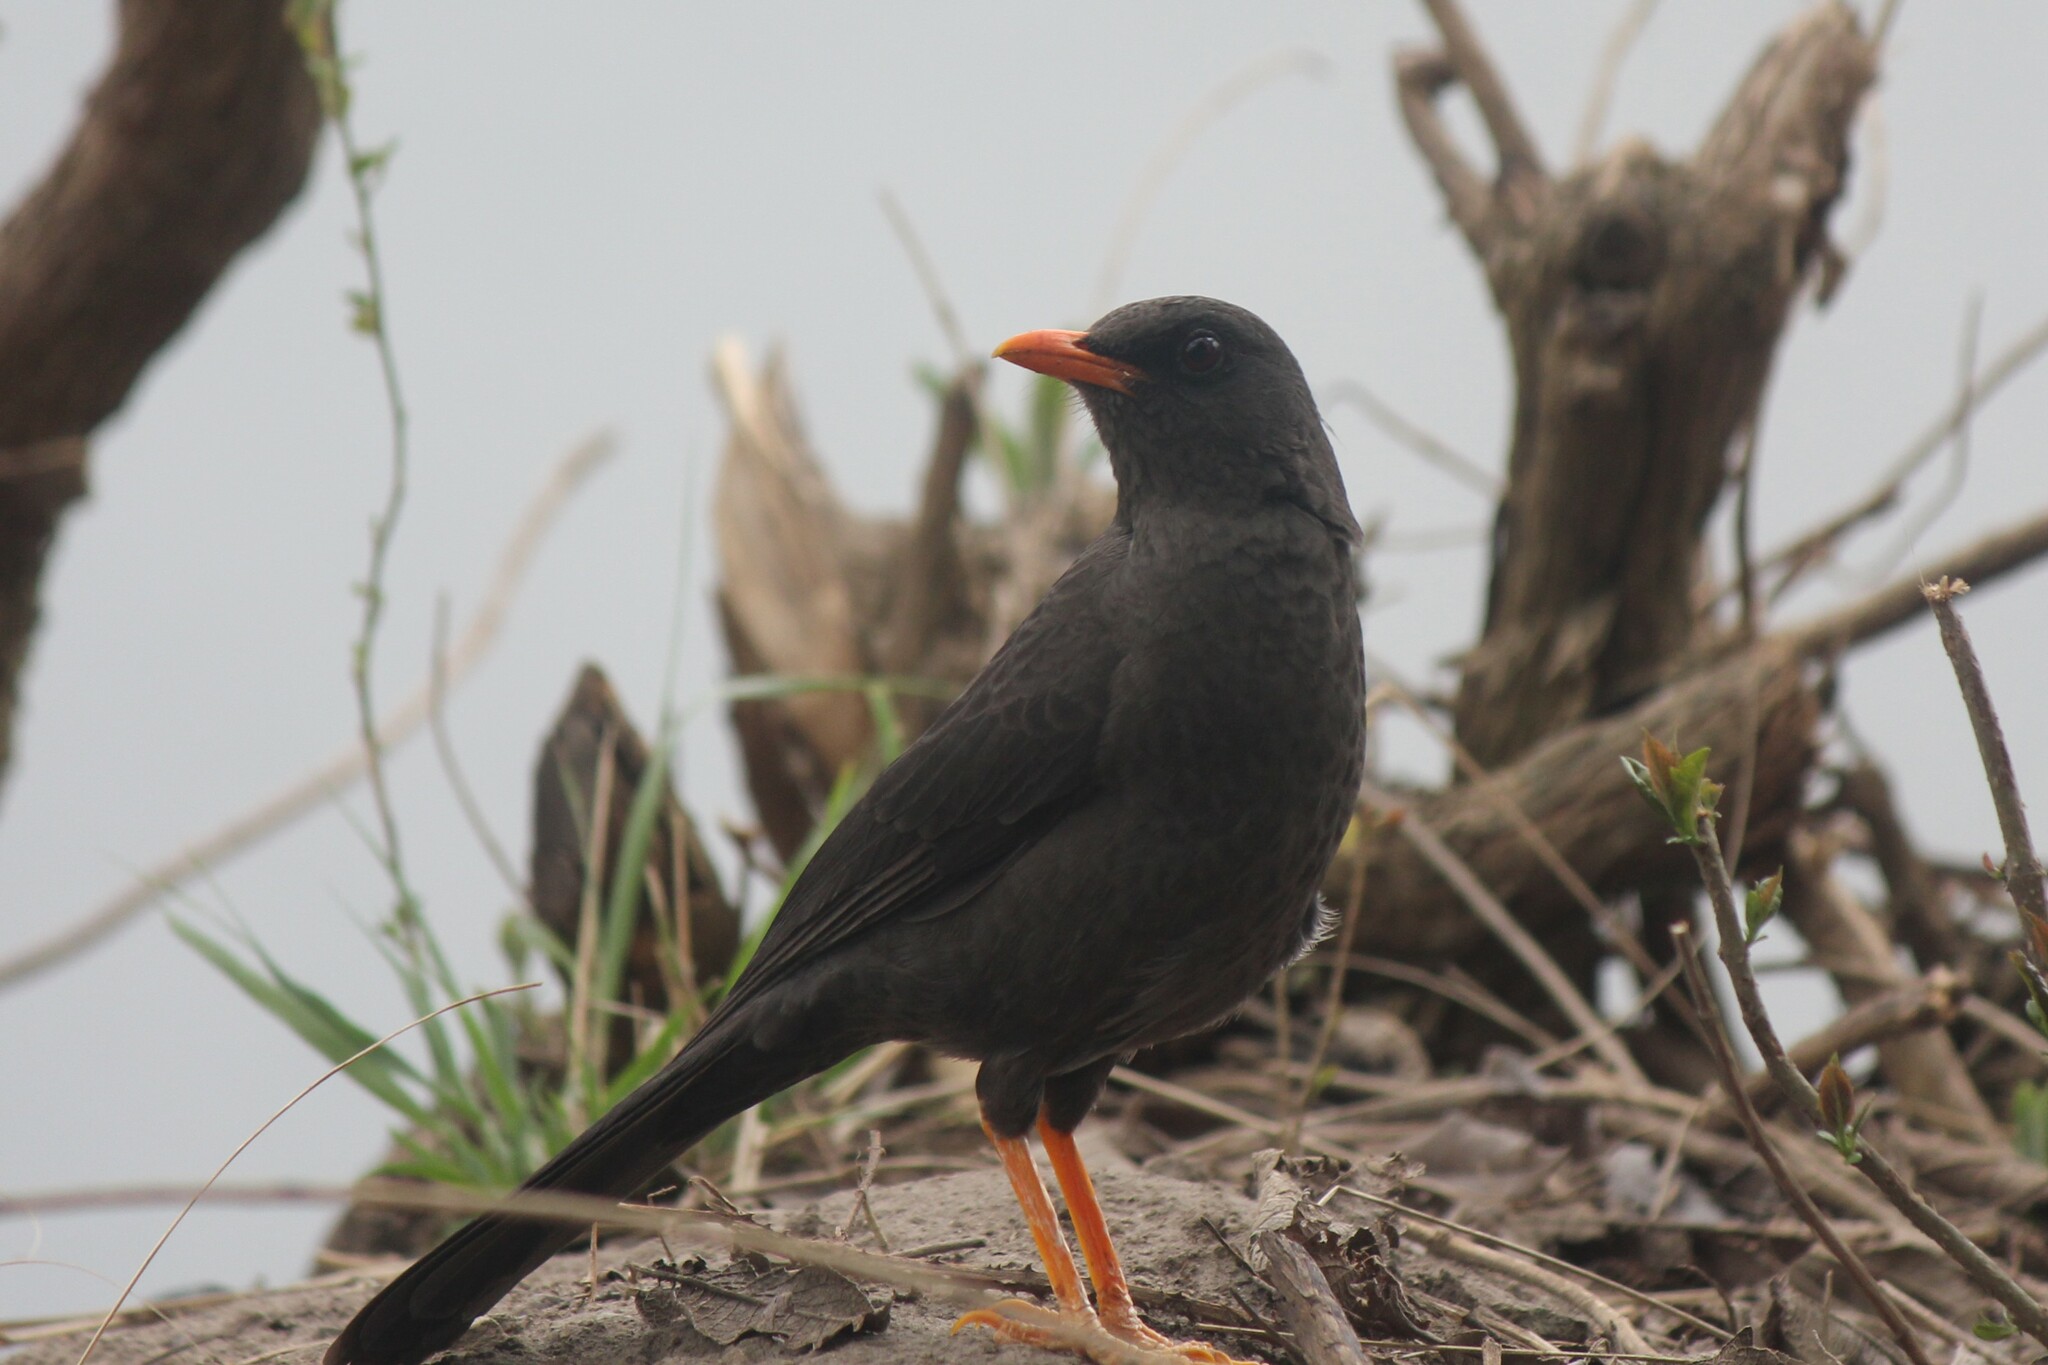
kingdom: Animalia
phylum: Chordata
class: Aves
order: Passeriformes
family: Turdidae
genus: Turdus
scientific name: Turdus fuscater
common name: Great thrush
